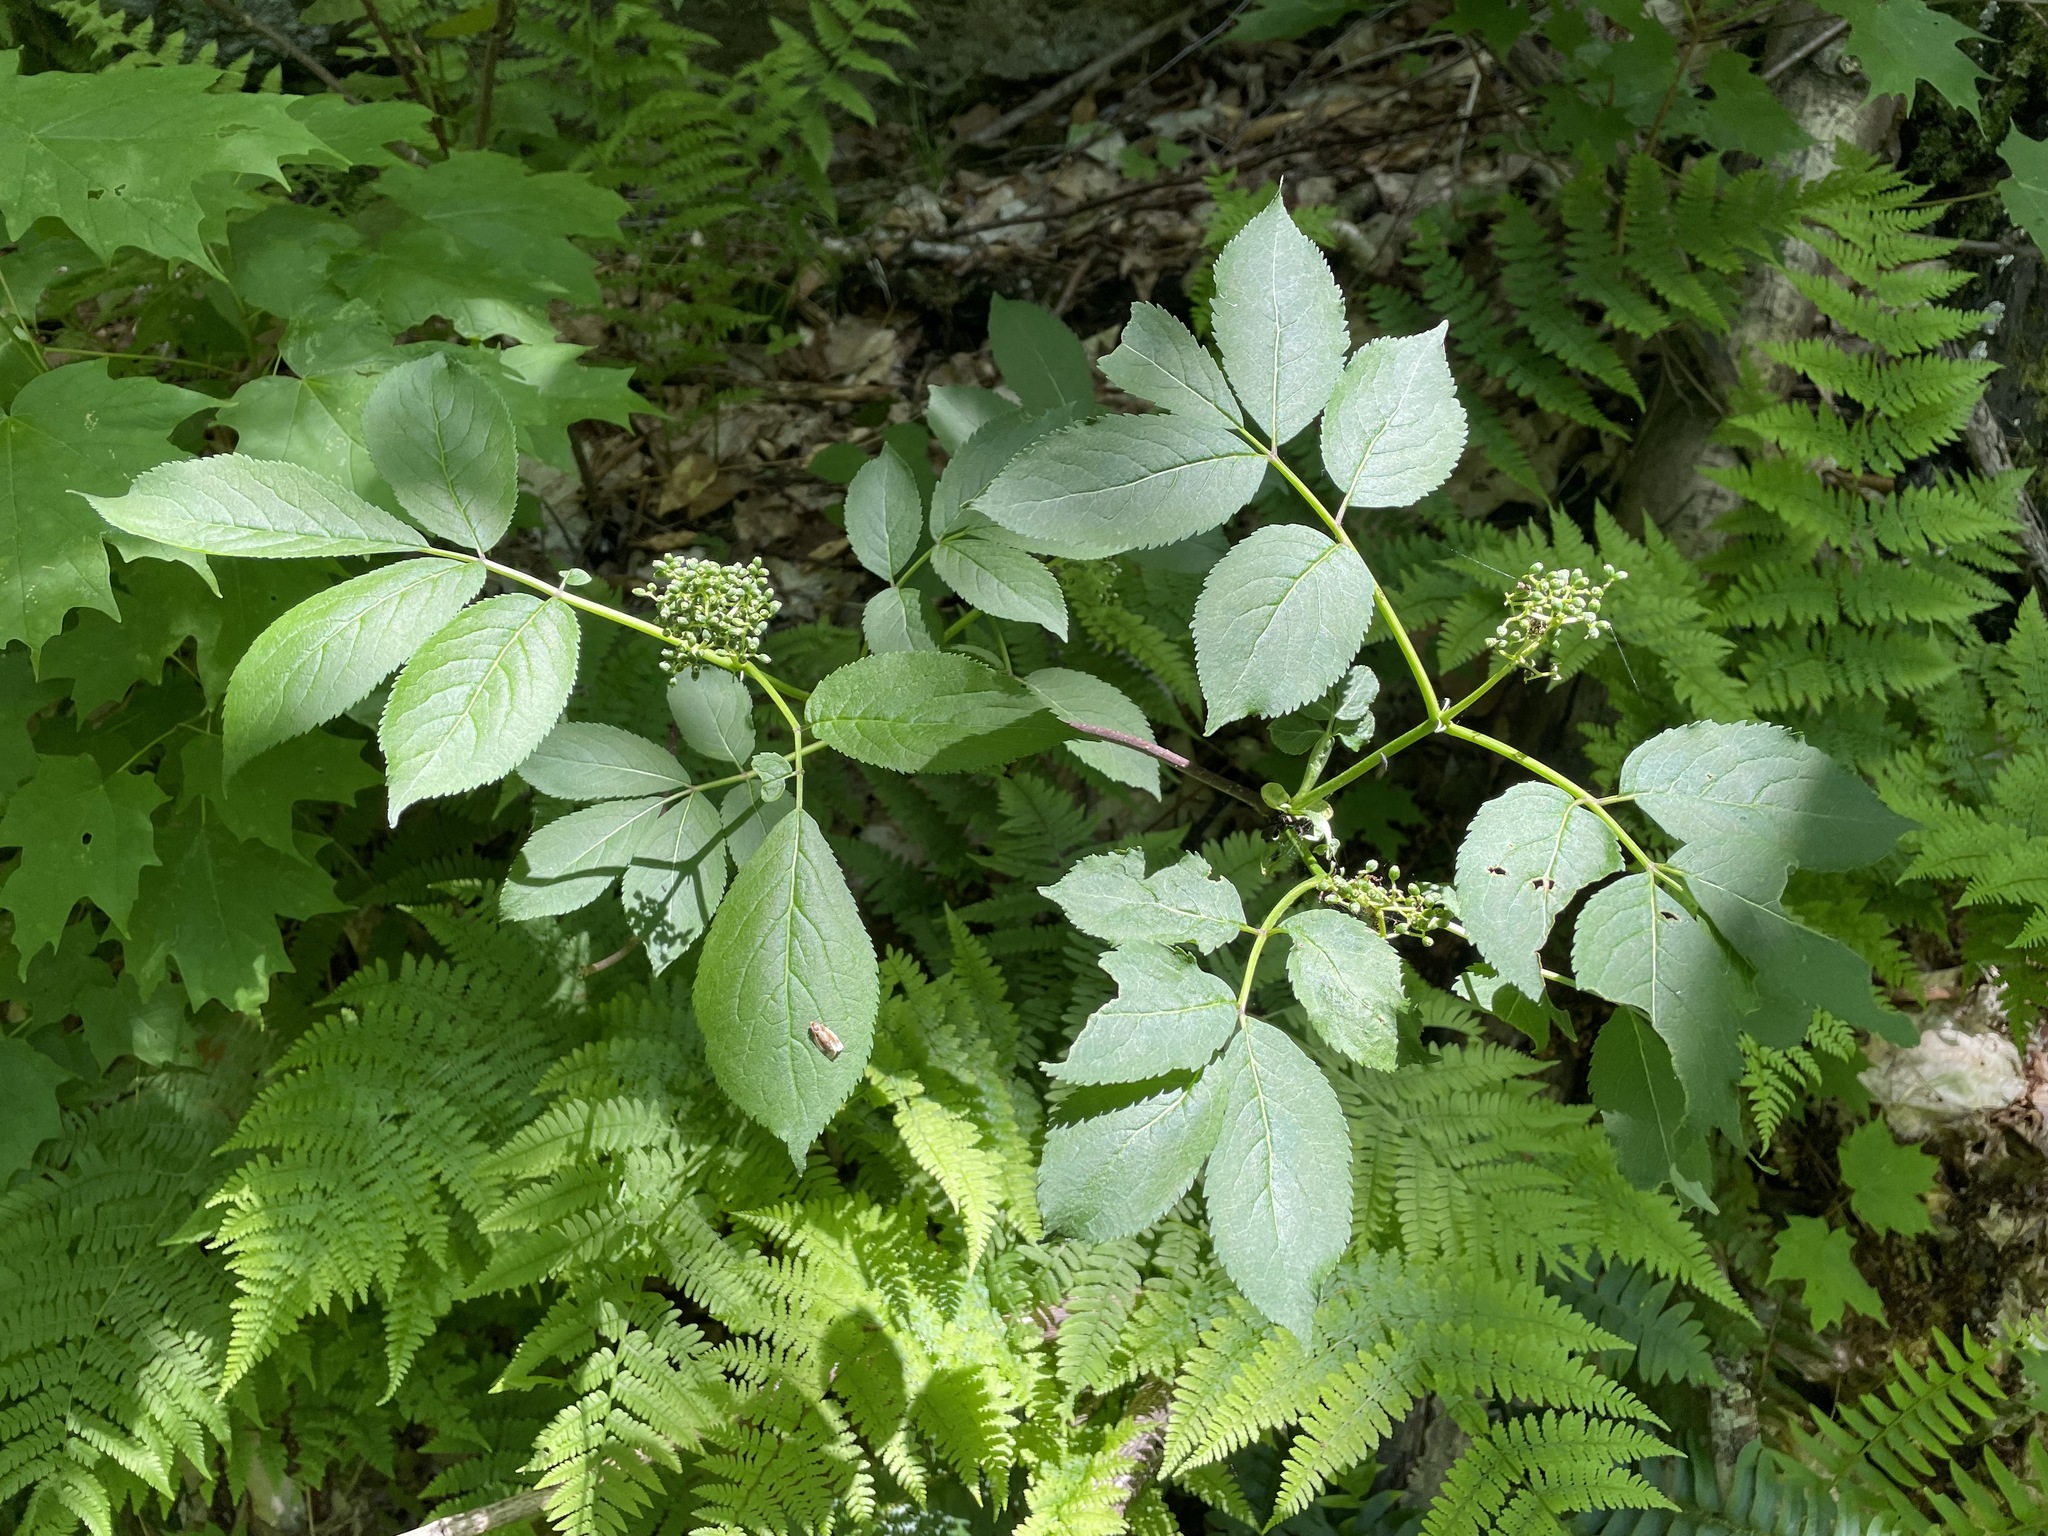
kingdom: Plantae
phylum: Tracheophyta
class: Magnoliopsida
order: Dipsacales
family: Viburnaceae
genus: Sambucus
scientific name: Sambucus racemosa
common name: Red-berried elder
